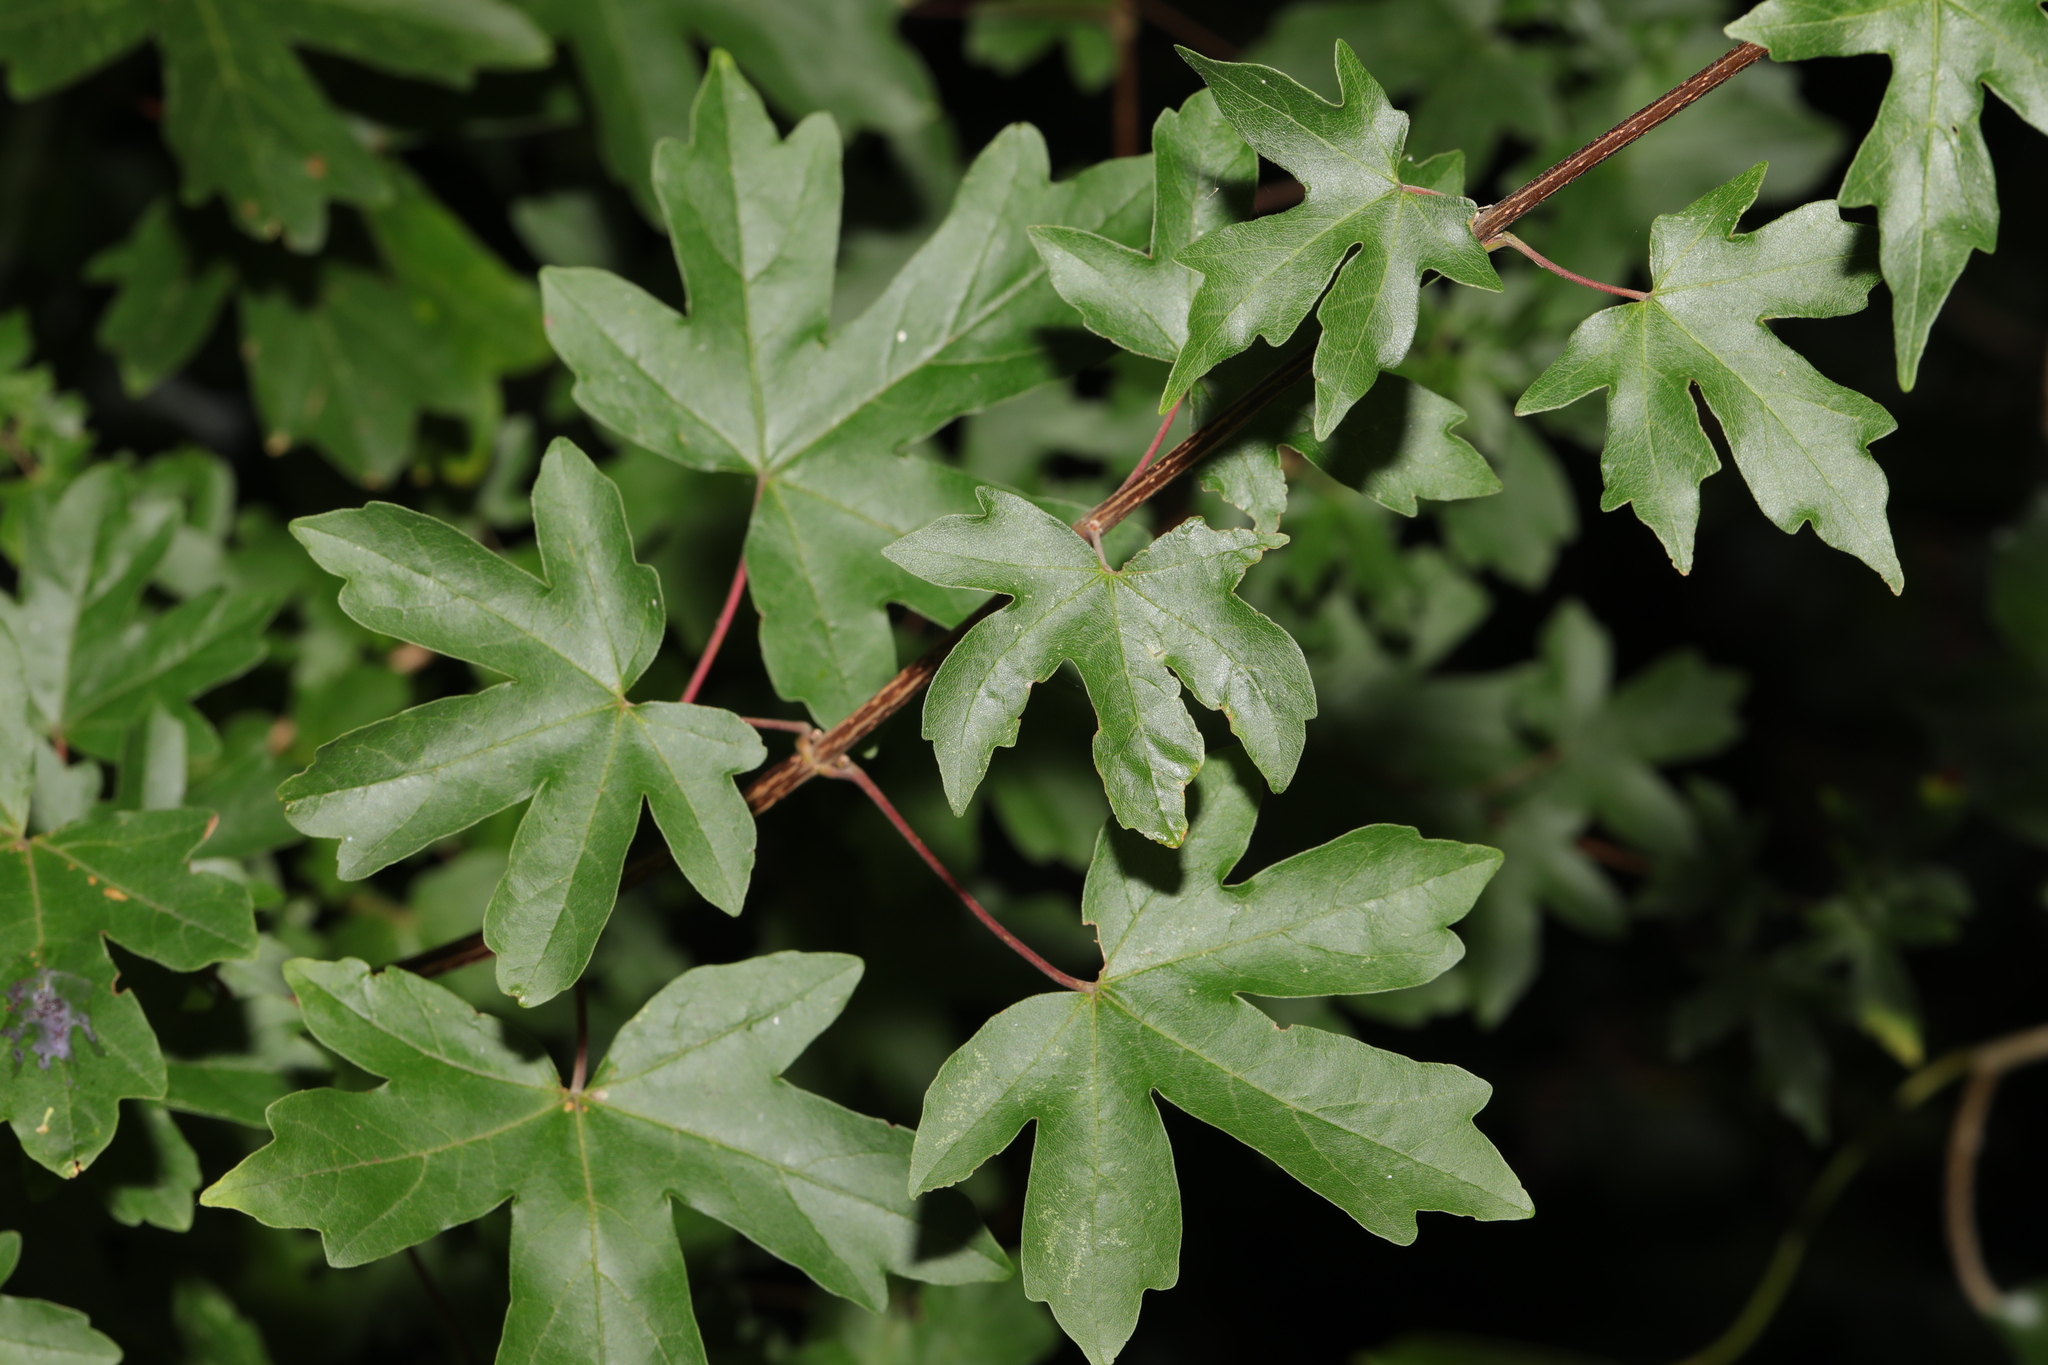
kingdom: Plantae
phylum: Tracheophyta
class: Magnoliopsida
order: Sapindales
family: Sapindaceae
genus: Acer
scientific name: Acer campestre
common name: Field maple
